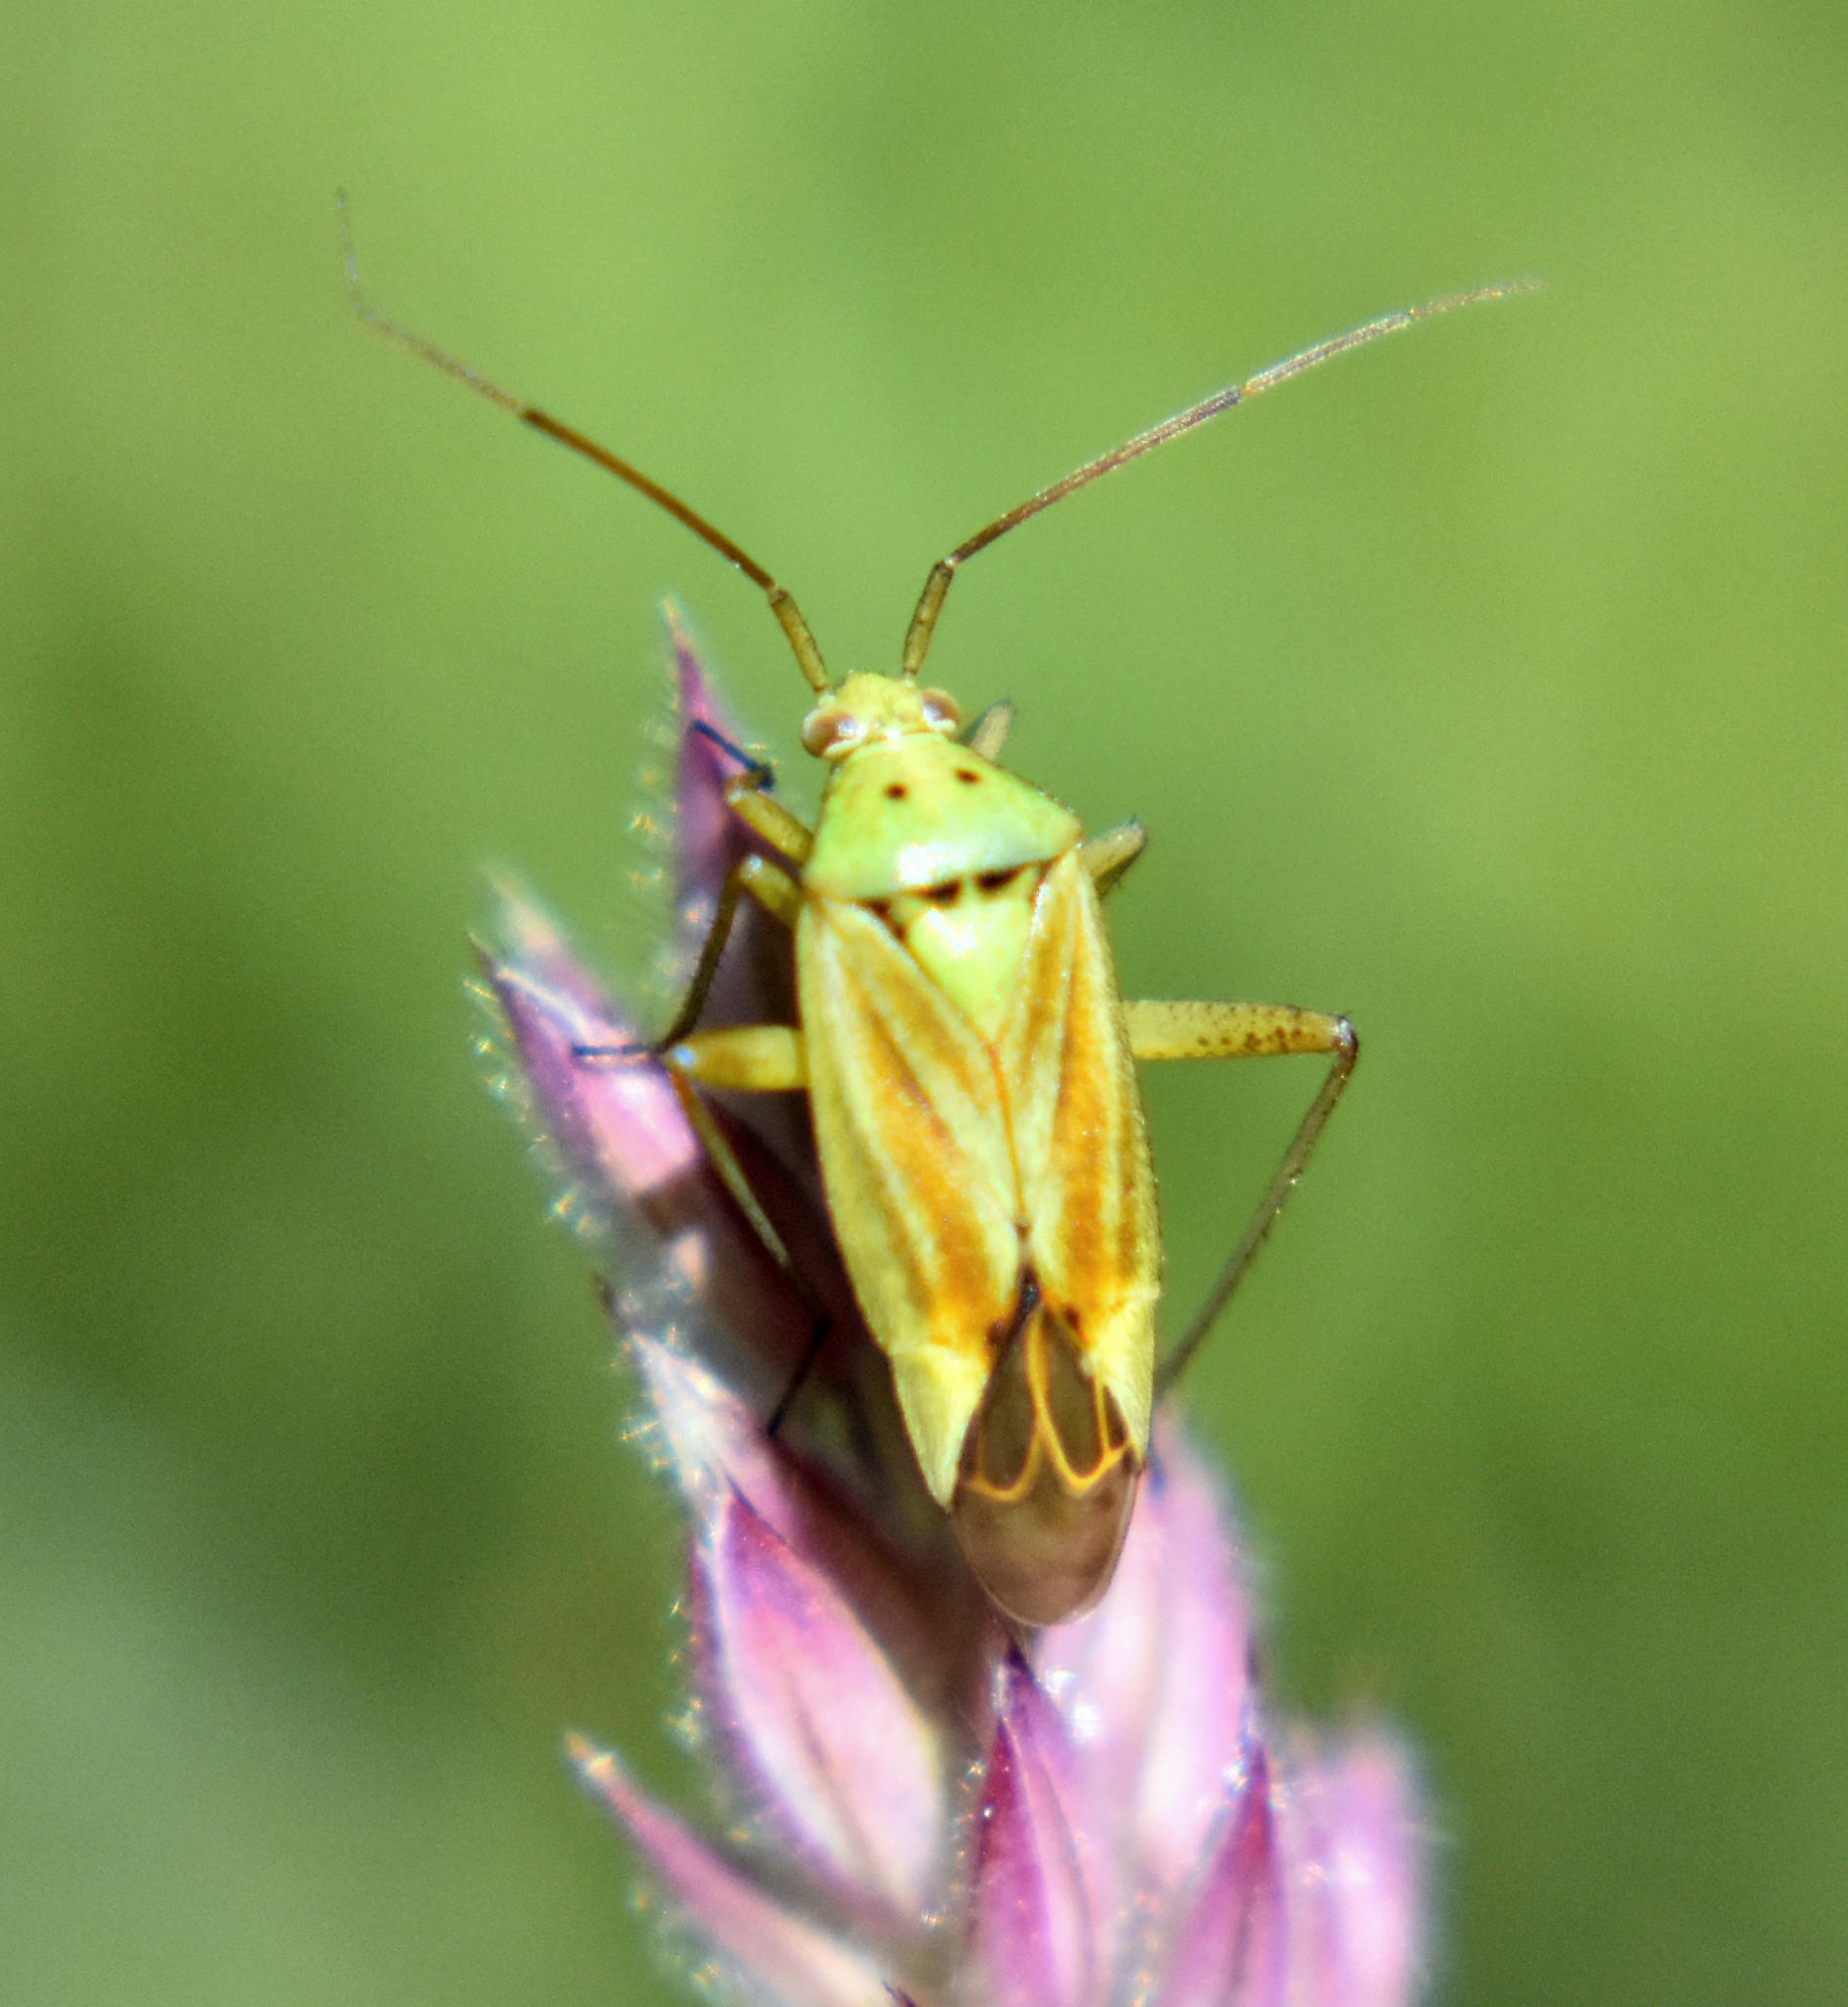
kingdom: Animalia
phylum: Arthropoda
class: Insecta
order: Hemiptera
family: Miridae
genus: Closterotomus
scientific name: Closterotomus norvegicus
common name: Plant bug
